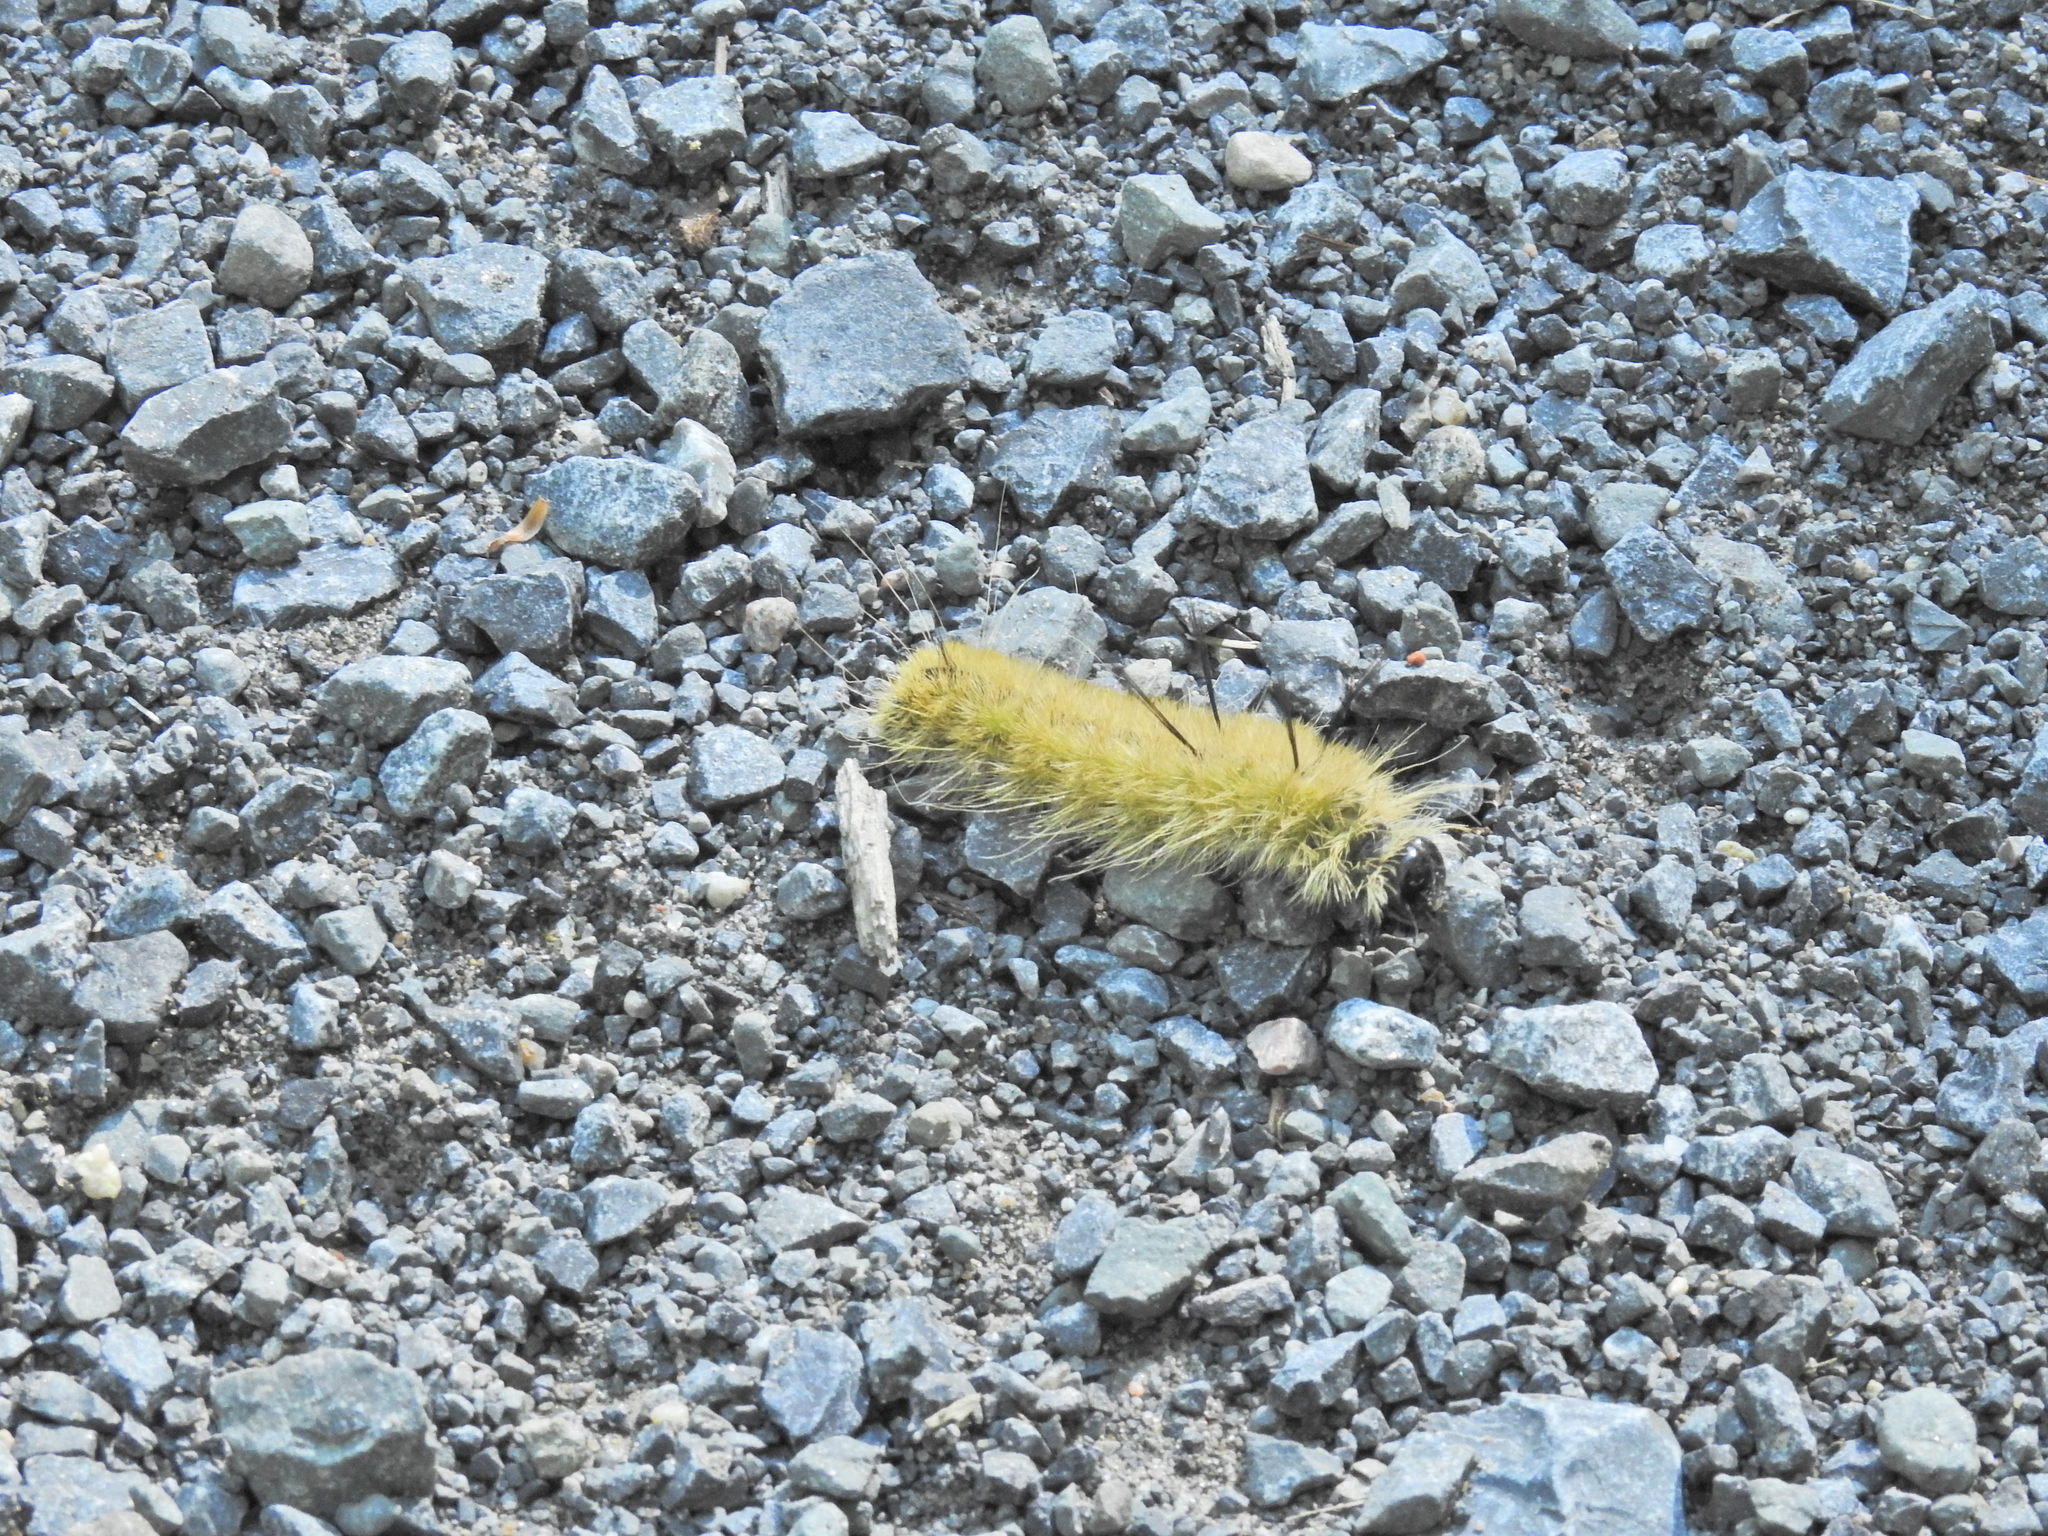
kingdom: Animalia
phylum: Arthropoda
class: Insecta
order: Lepidoptera
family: Noctuidae
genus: Acronicta
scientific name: Acronicta americana
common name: American dagger
